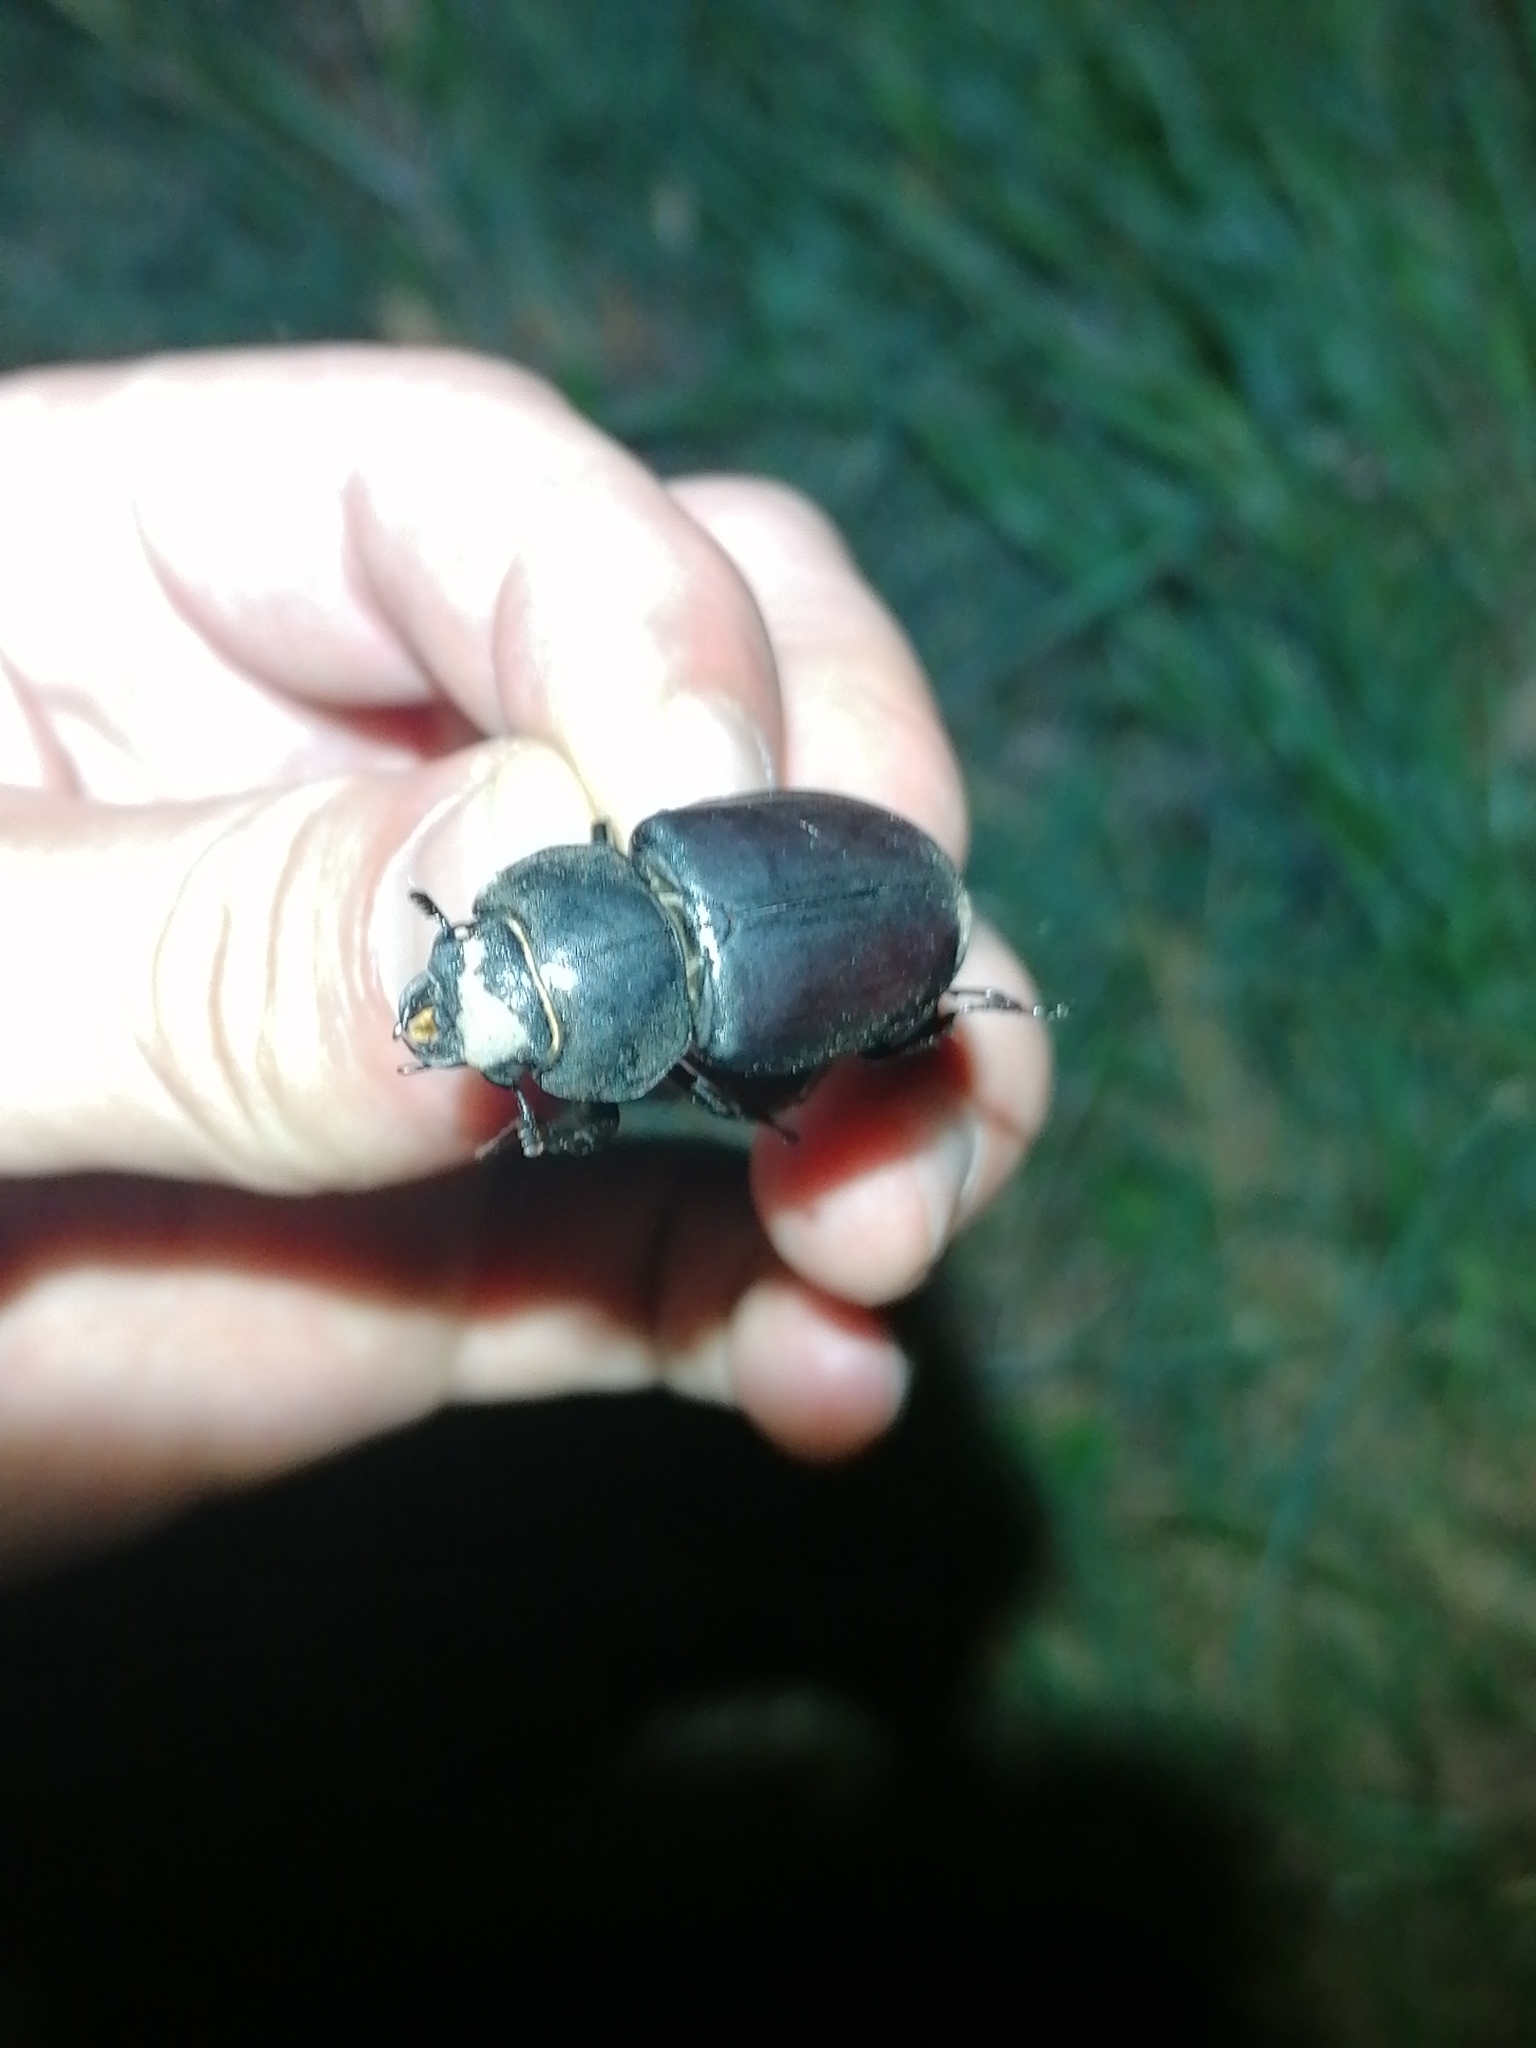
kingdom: Animalia
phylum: Arthropoda
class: Insecta
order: Coleoptera
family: Lucanidae
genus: Lucanus
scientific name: Lucanus cervus
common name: Stag beetle
